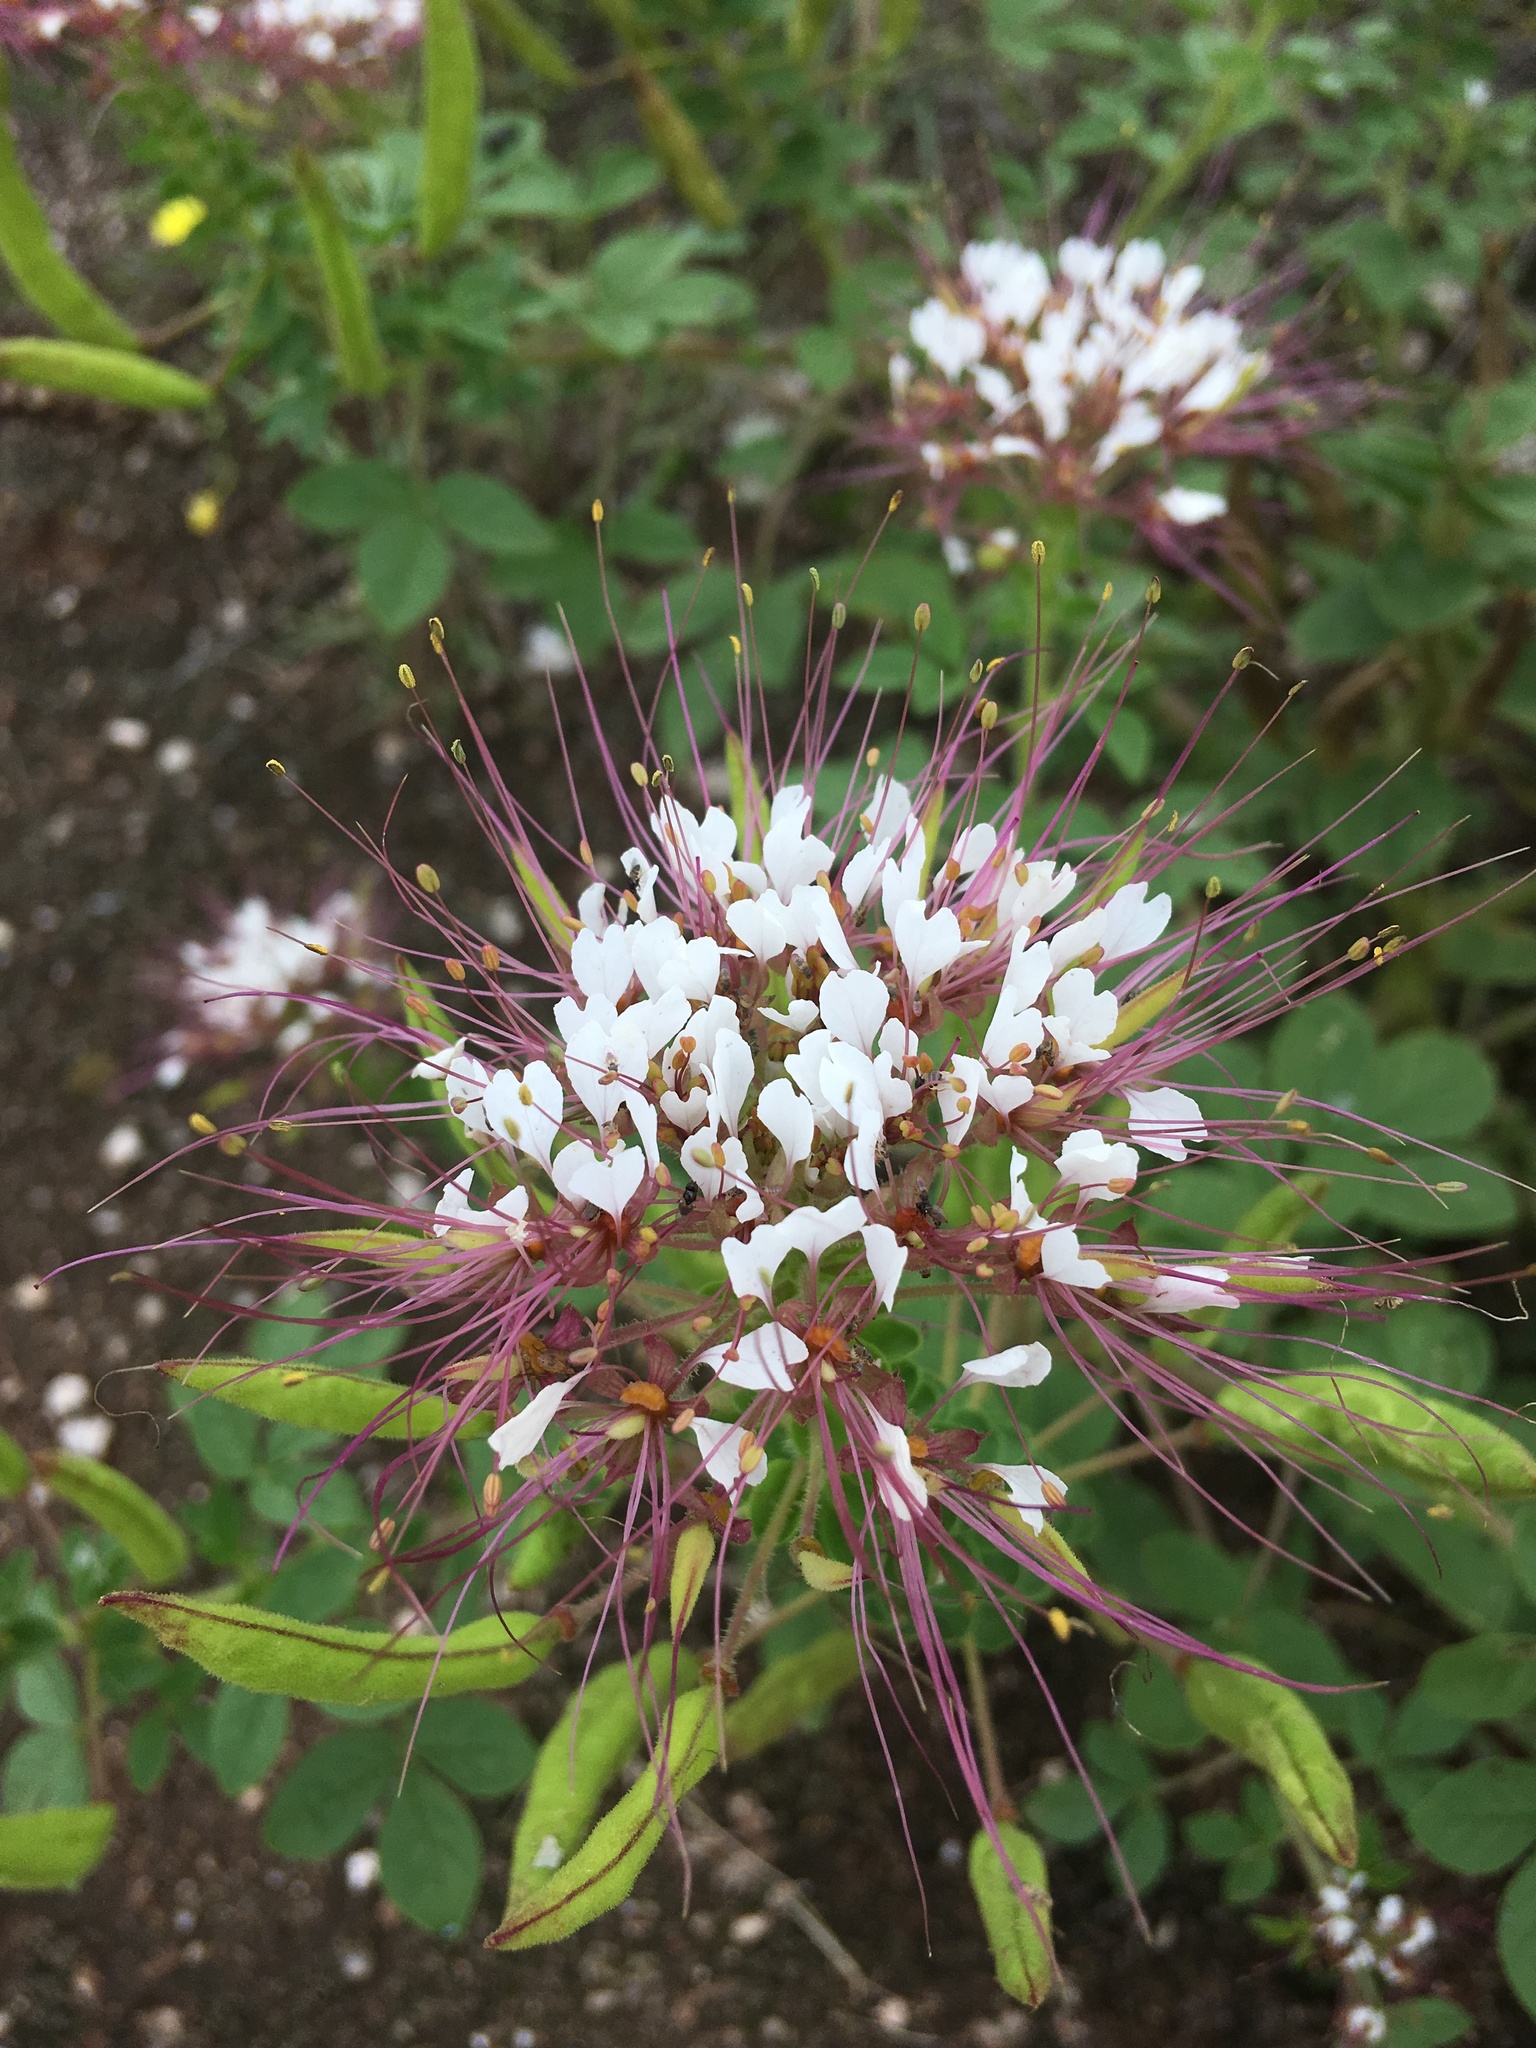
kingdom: Plantae
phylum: Tracheophyta
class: Magnoliopsida
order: Brassicales
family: Cleomaceae
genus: Polanisia
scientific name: Polanisia dodecandra
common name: Clammyweed
